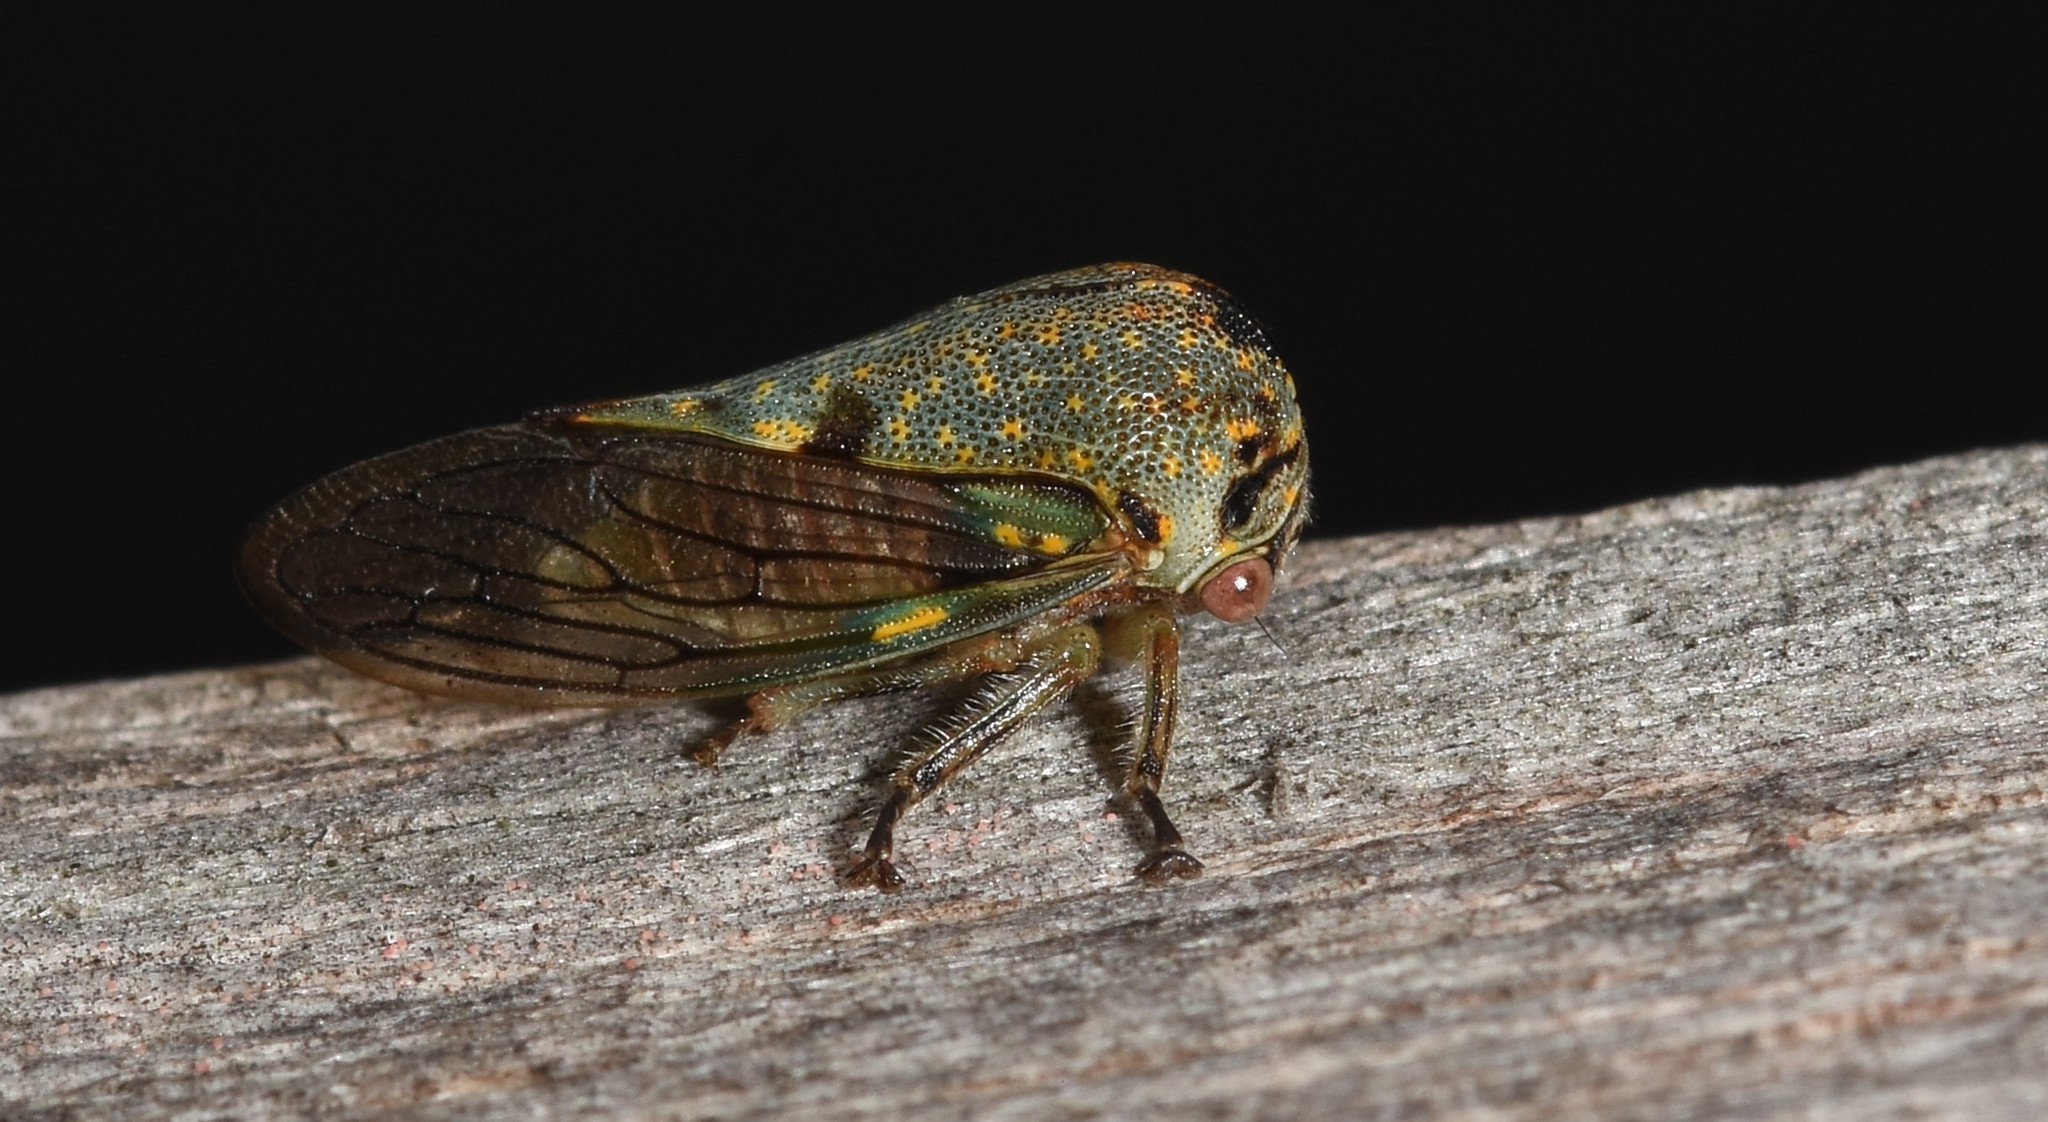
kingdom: Animalia
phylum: Arthropoda
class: Insecta
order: Hemiptera
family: Membracidae
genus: Platycotis
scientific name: Platycotis vittatus
